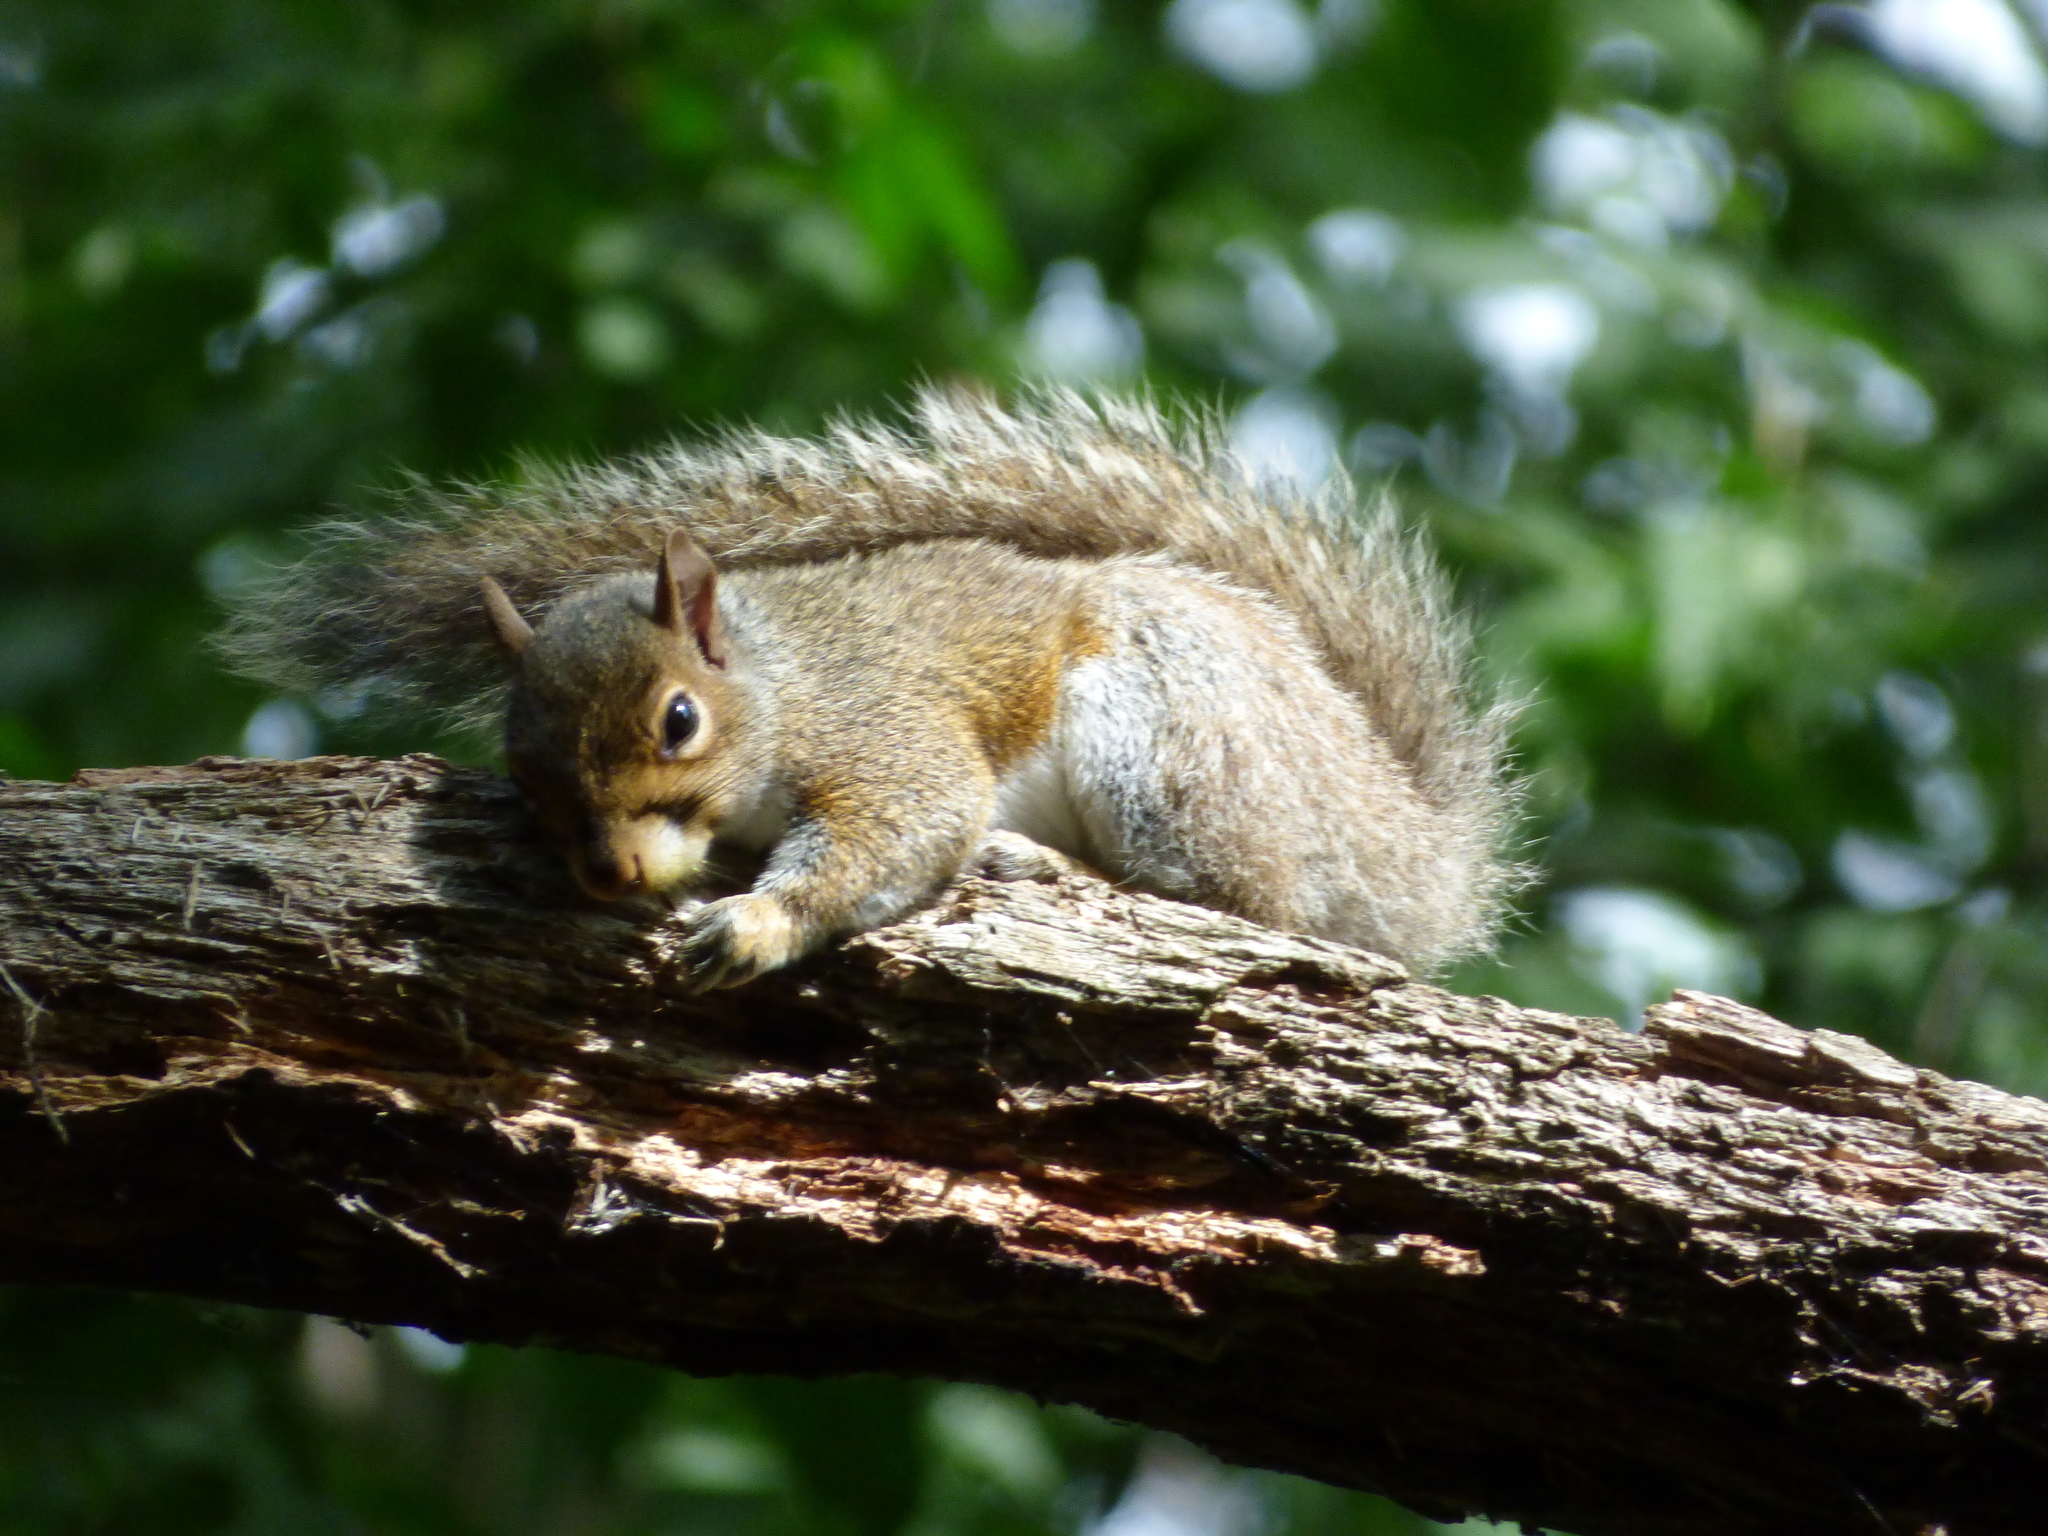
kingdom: Animalia
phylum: Chordata
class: Mammalia
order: Rodentia
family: Sciuridae
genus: Sciurus
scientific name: Sciurus carolinensis
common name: Eastern gray squirrel
